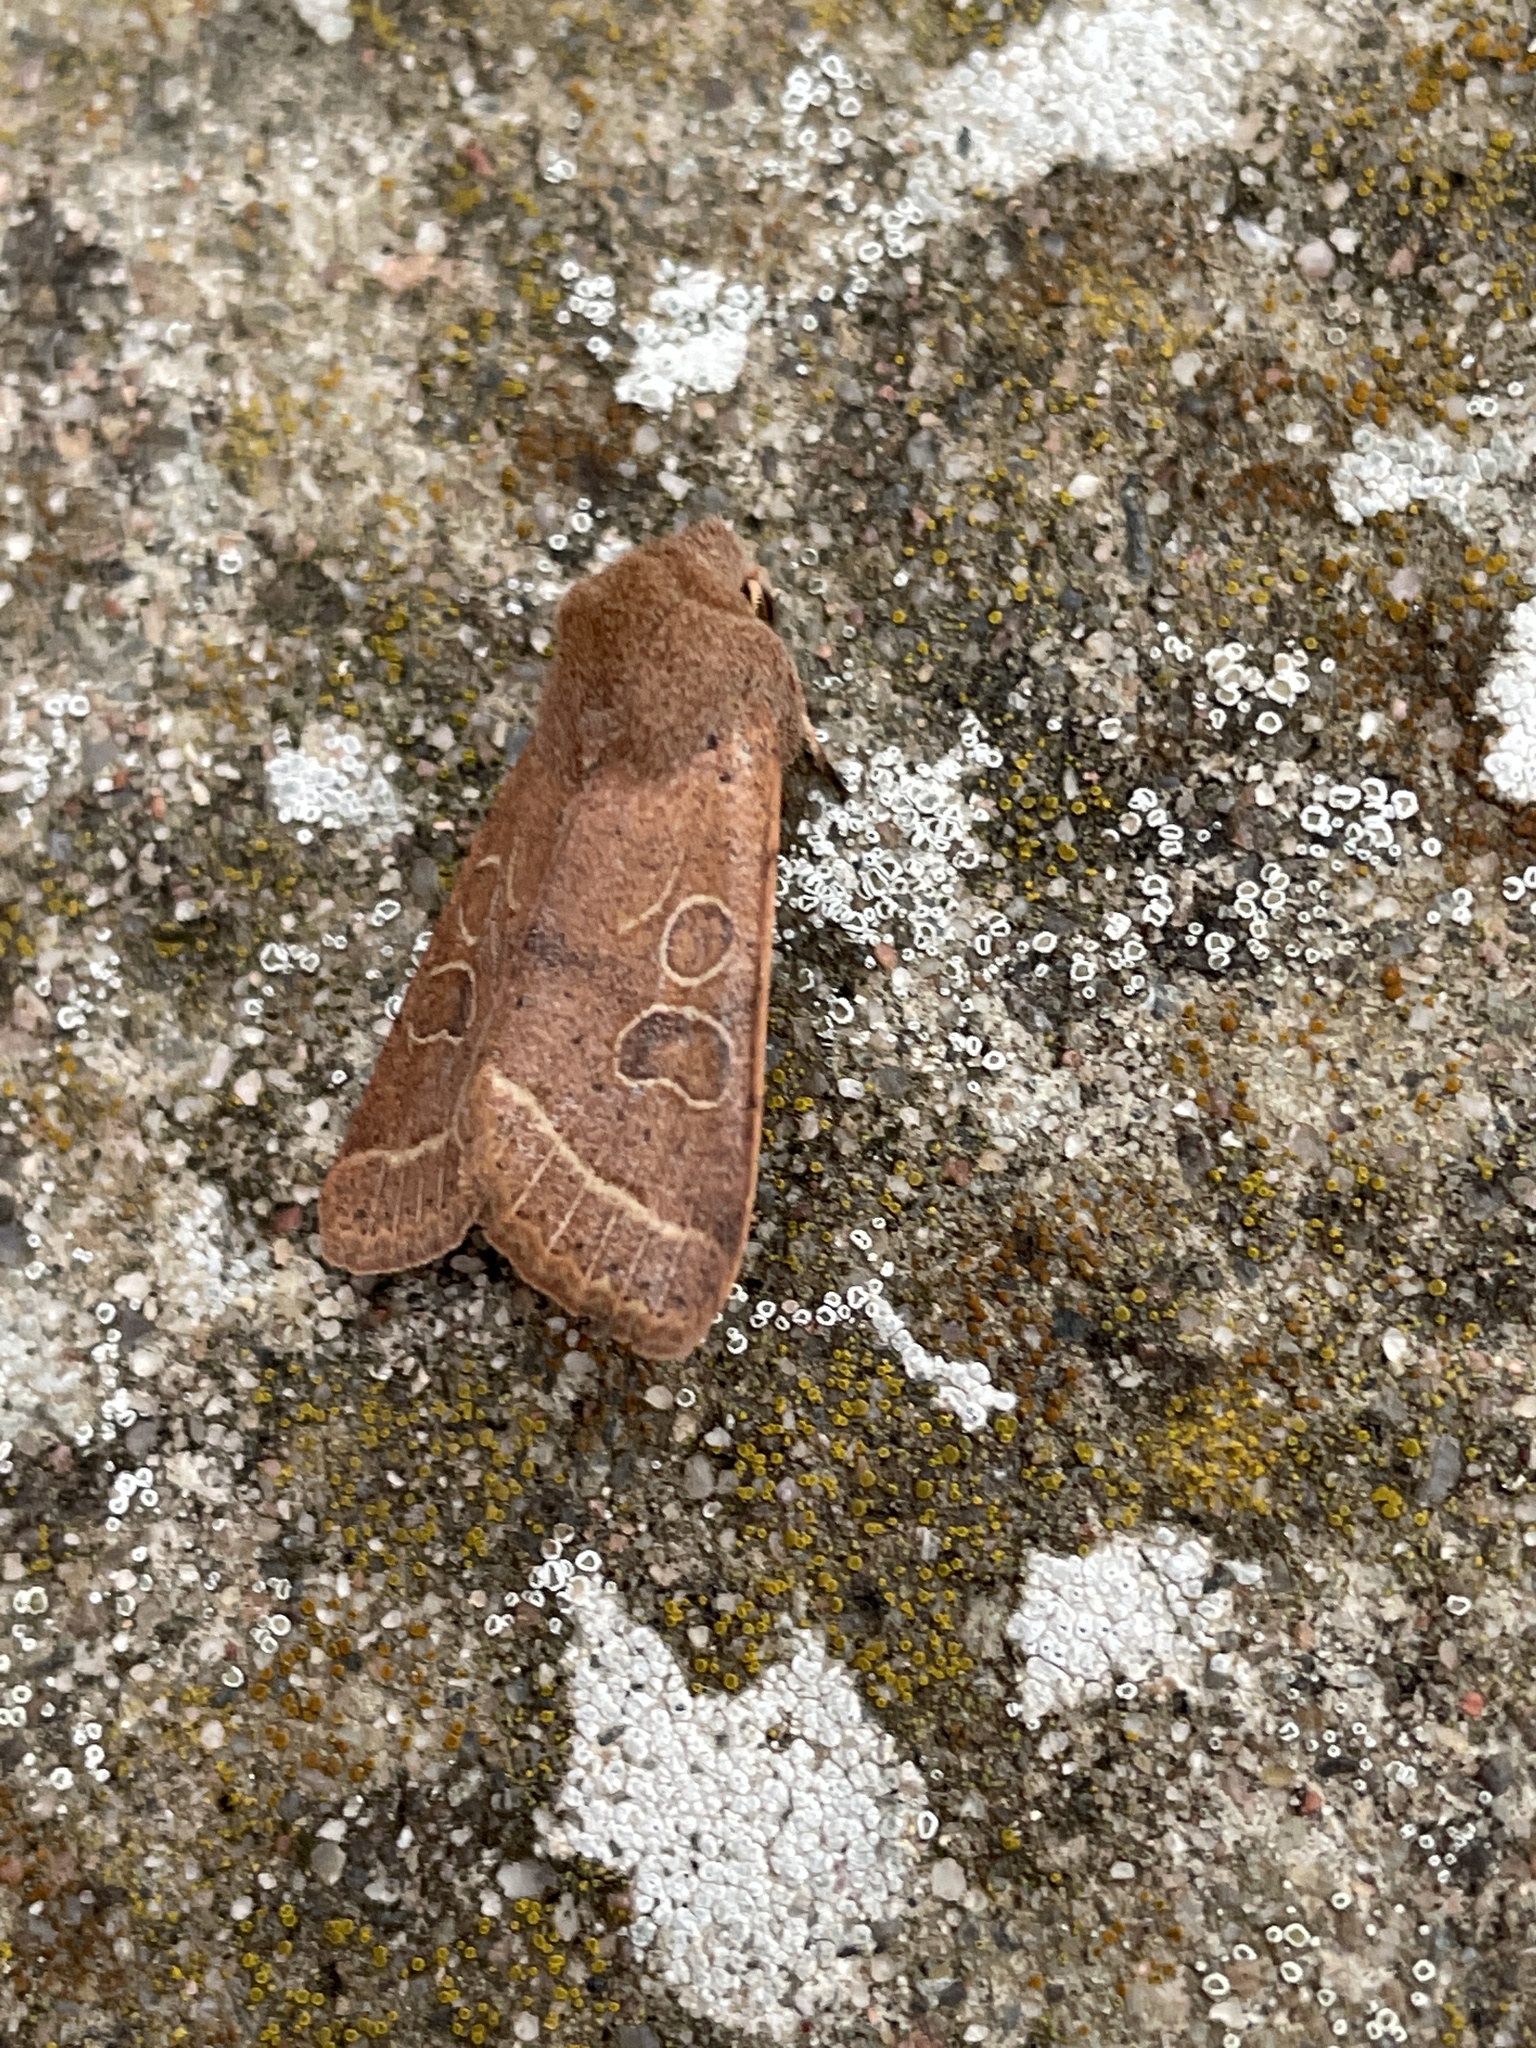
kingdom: Animalia
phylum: Arthropoda
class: Insecta
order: Lepidoptera
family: Noctuidae
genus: Orthosia
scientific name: Orthosia cerasi
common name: Common quaker
